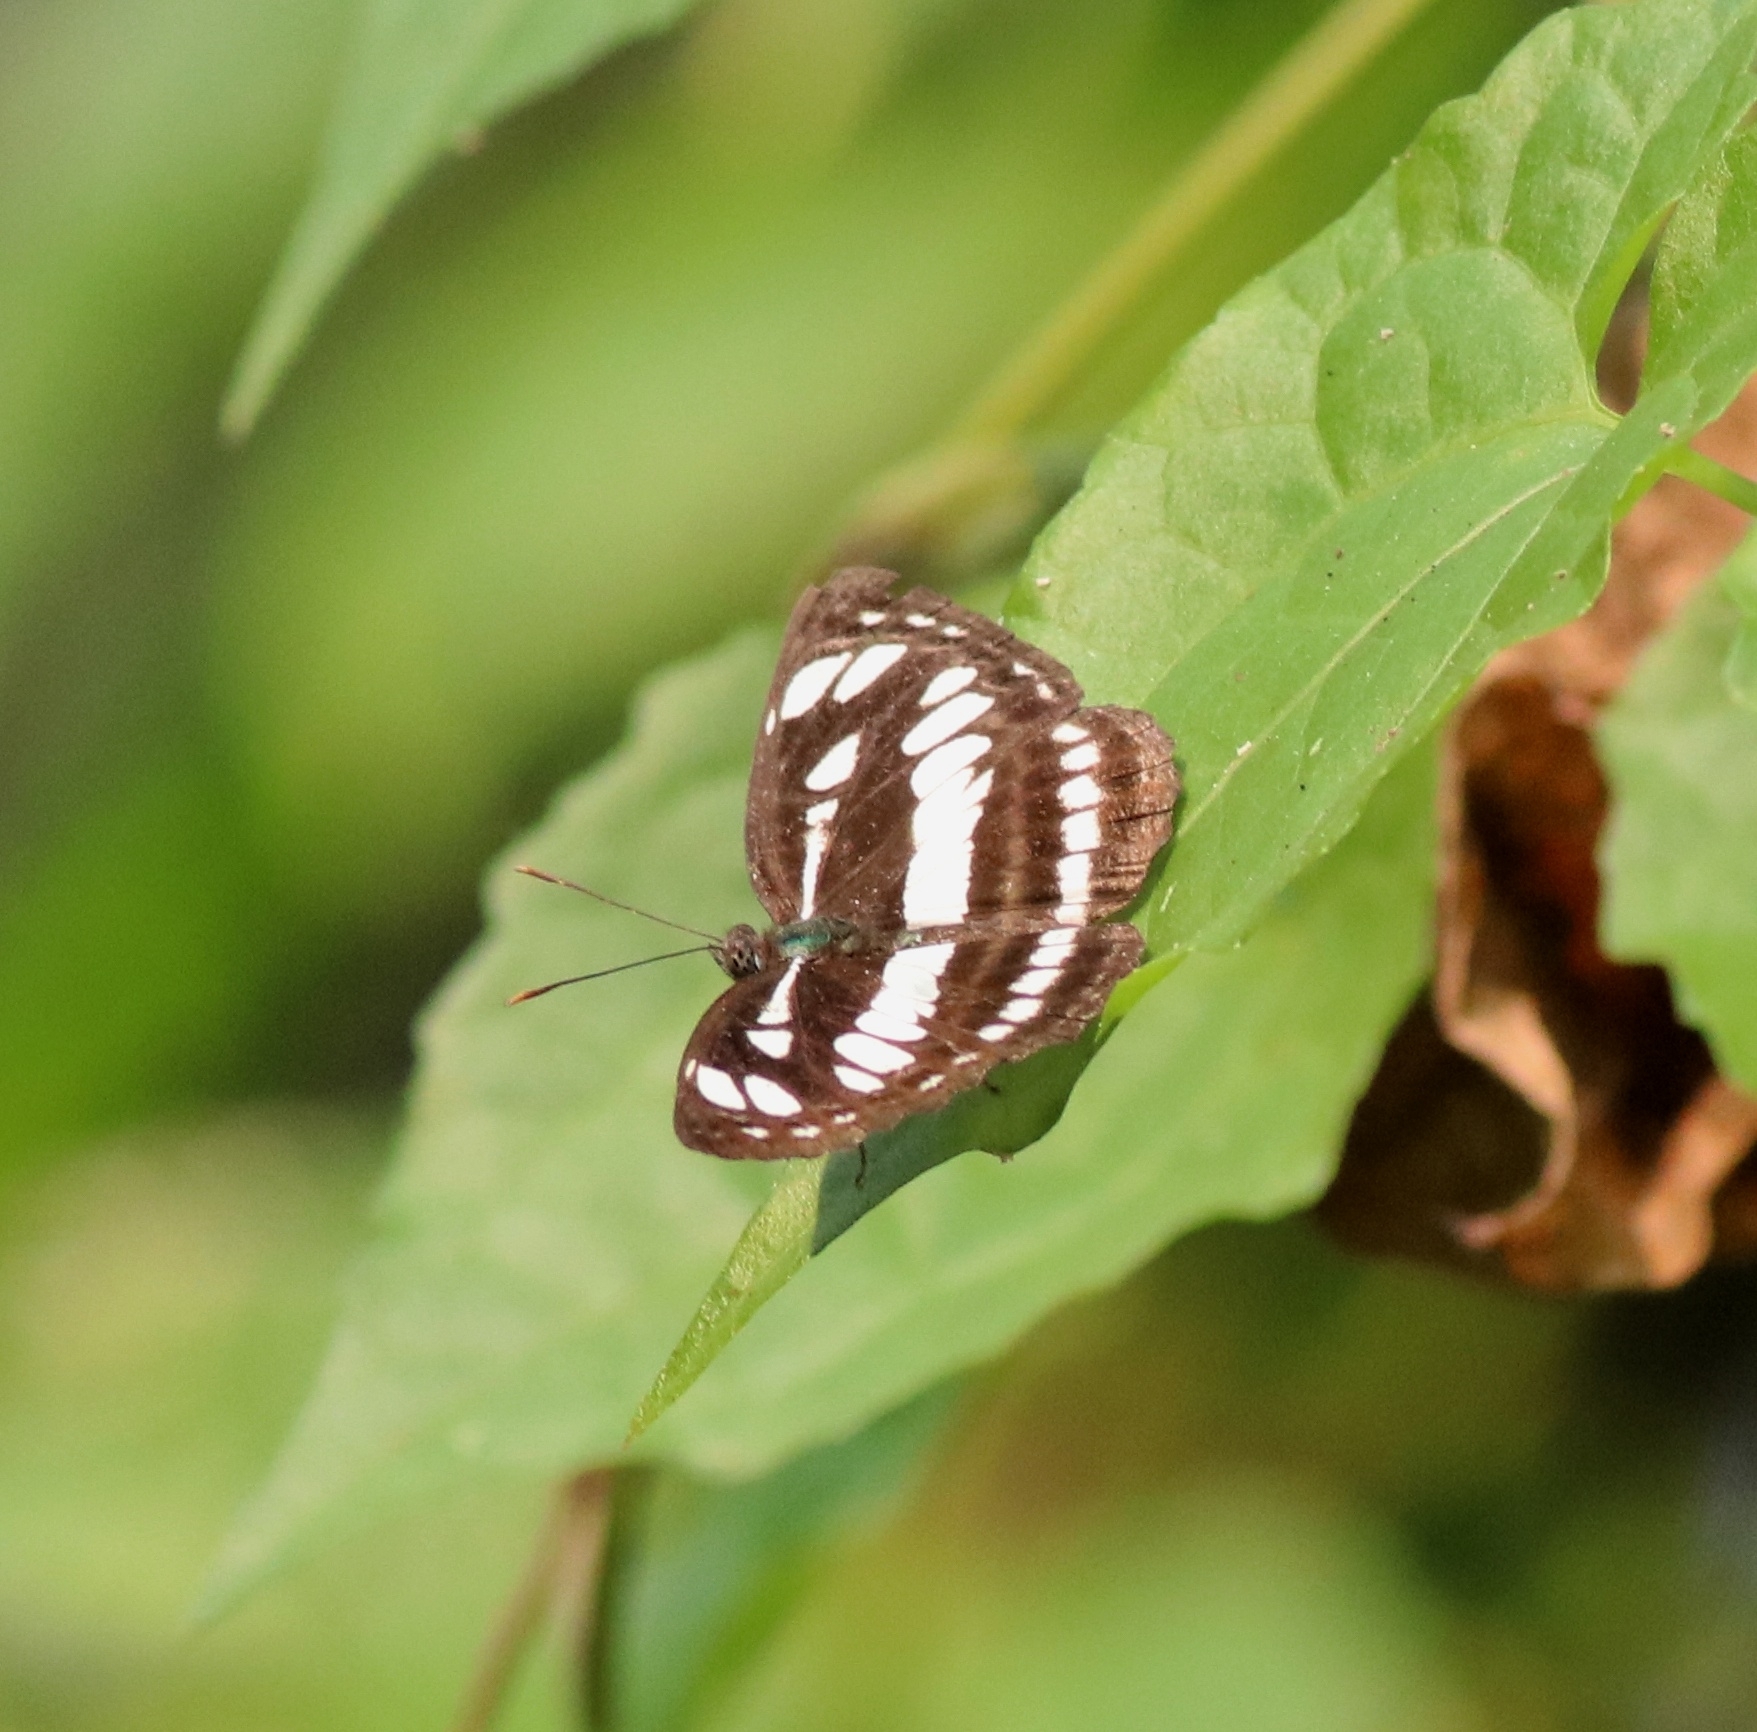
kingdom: Animalia
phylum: Arthropoda
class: Insecta
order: Lepidoptera
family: Nymphalidae
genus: Neptis
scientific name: Neptis hylas
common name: Common sailer
